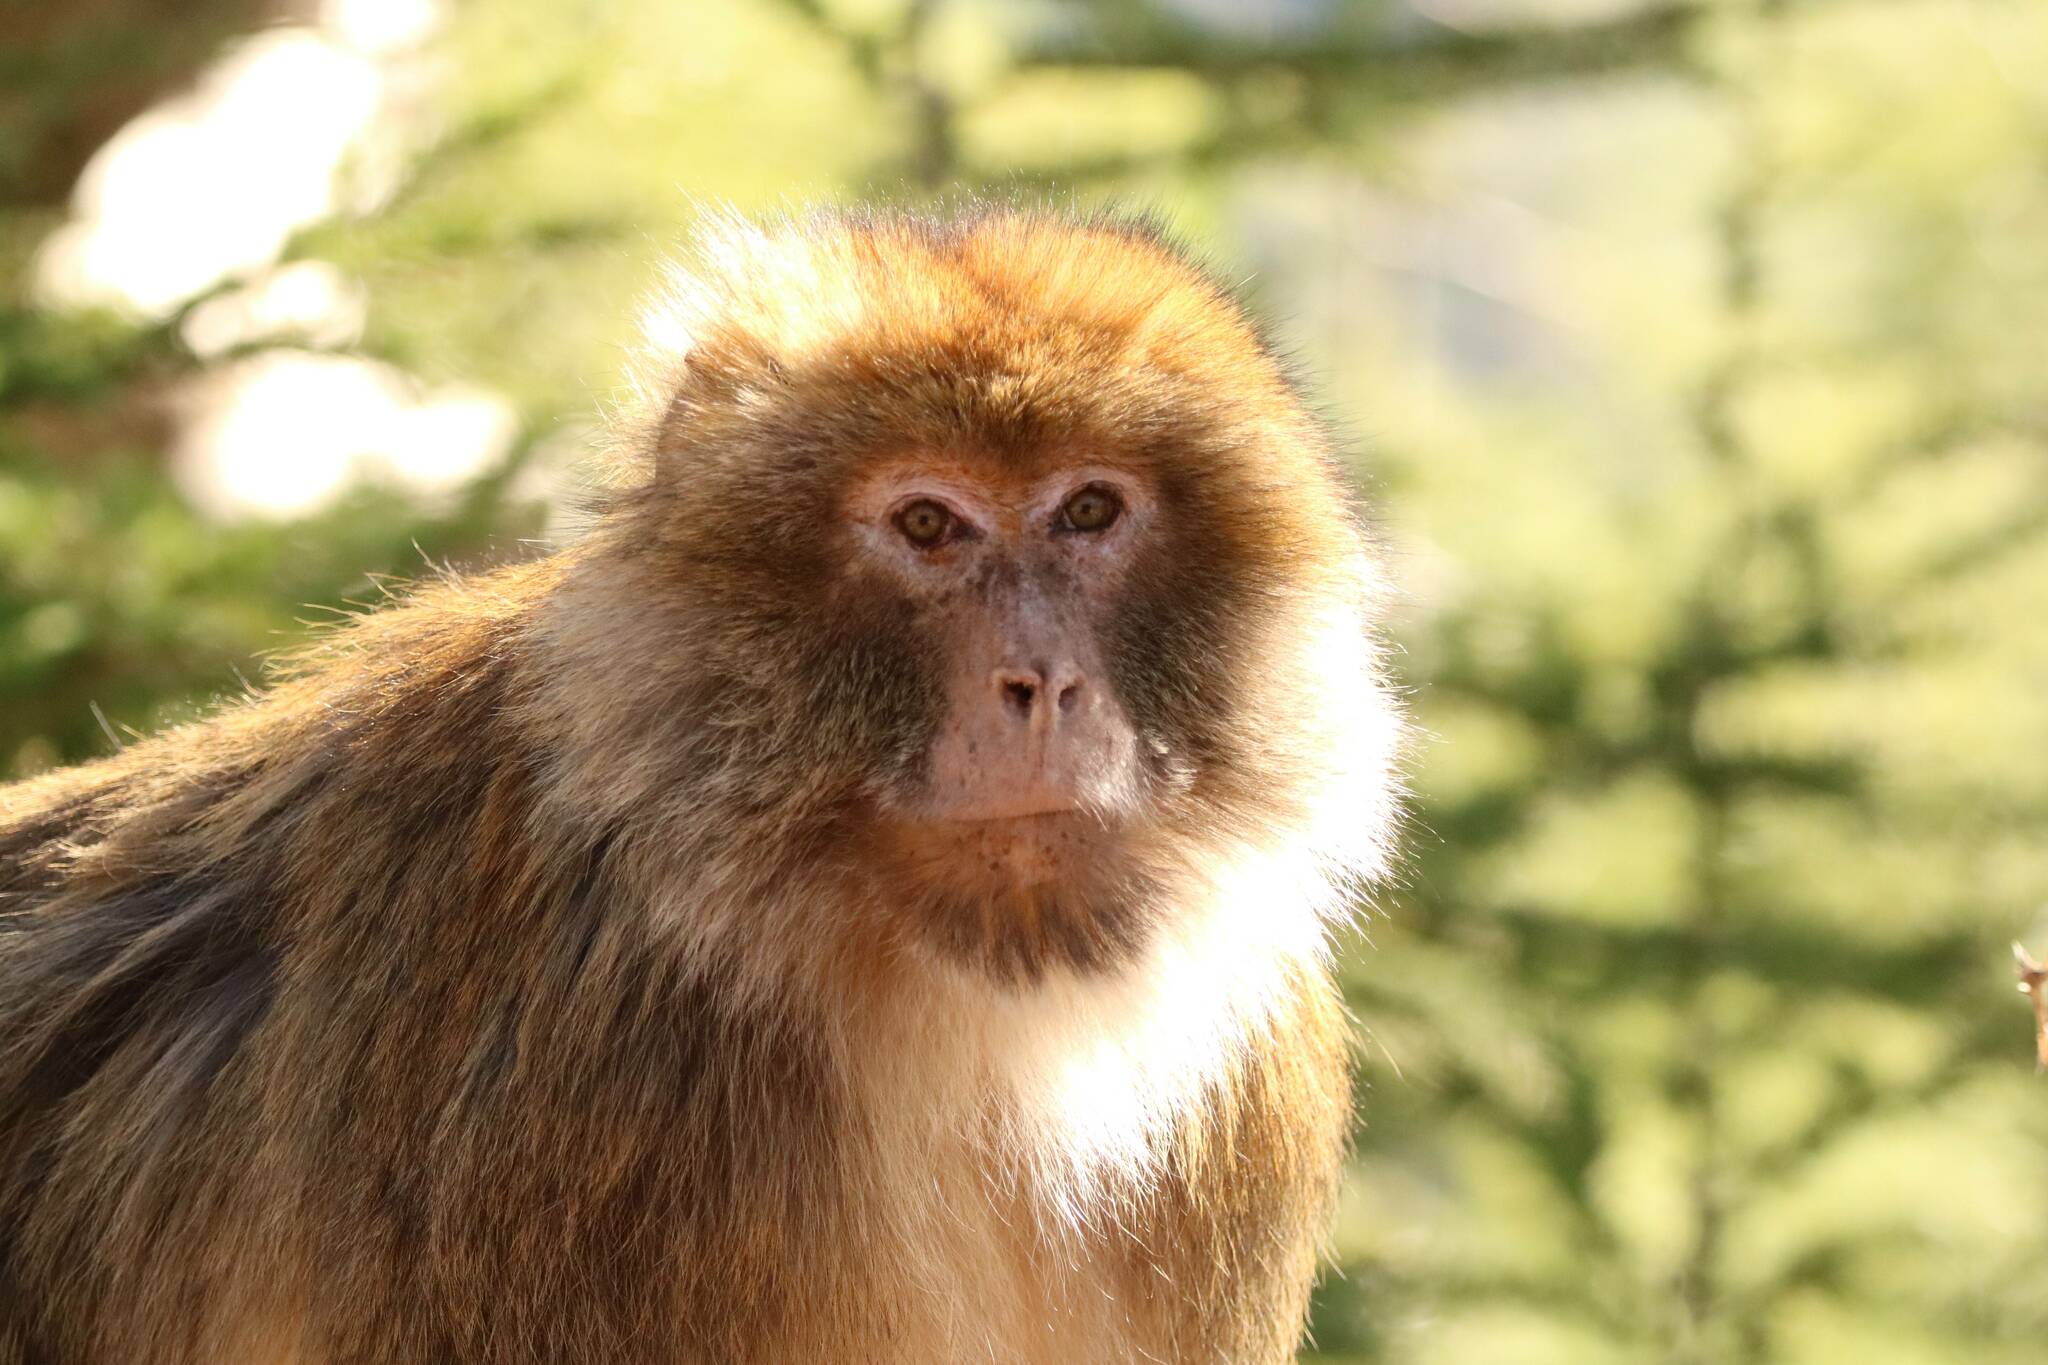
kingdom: Animalia
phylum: Chordata
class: Mammalia
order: Primates
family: Cercopithecidae
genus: Macaca
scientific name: Macaca sylvanus
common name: Barbary macaque
